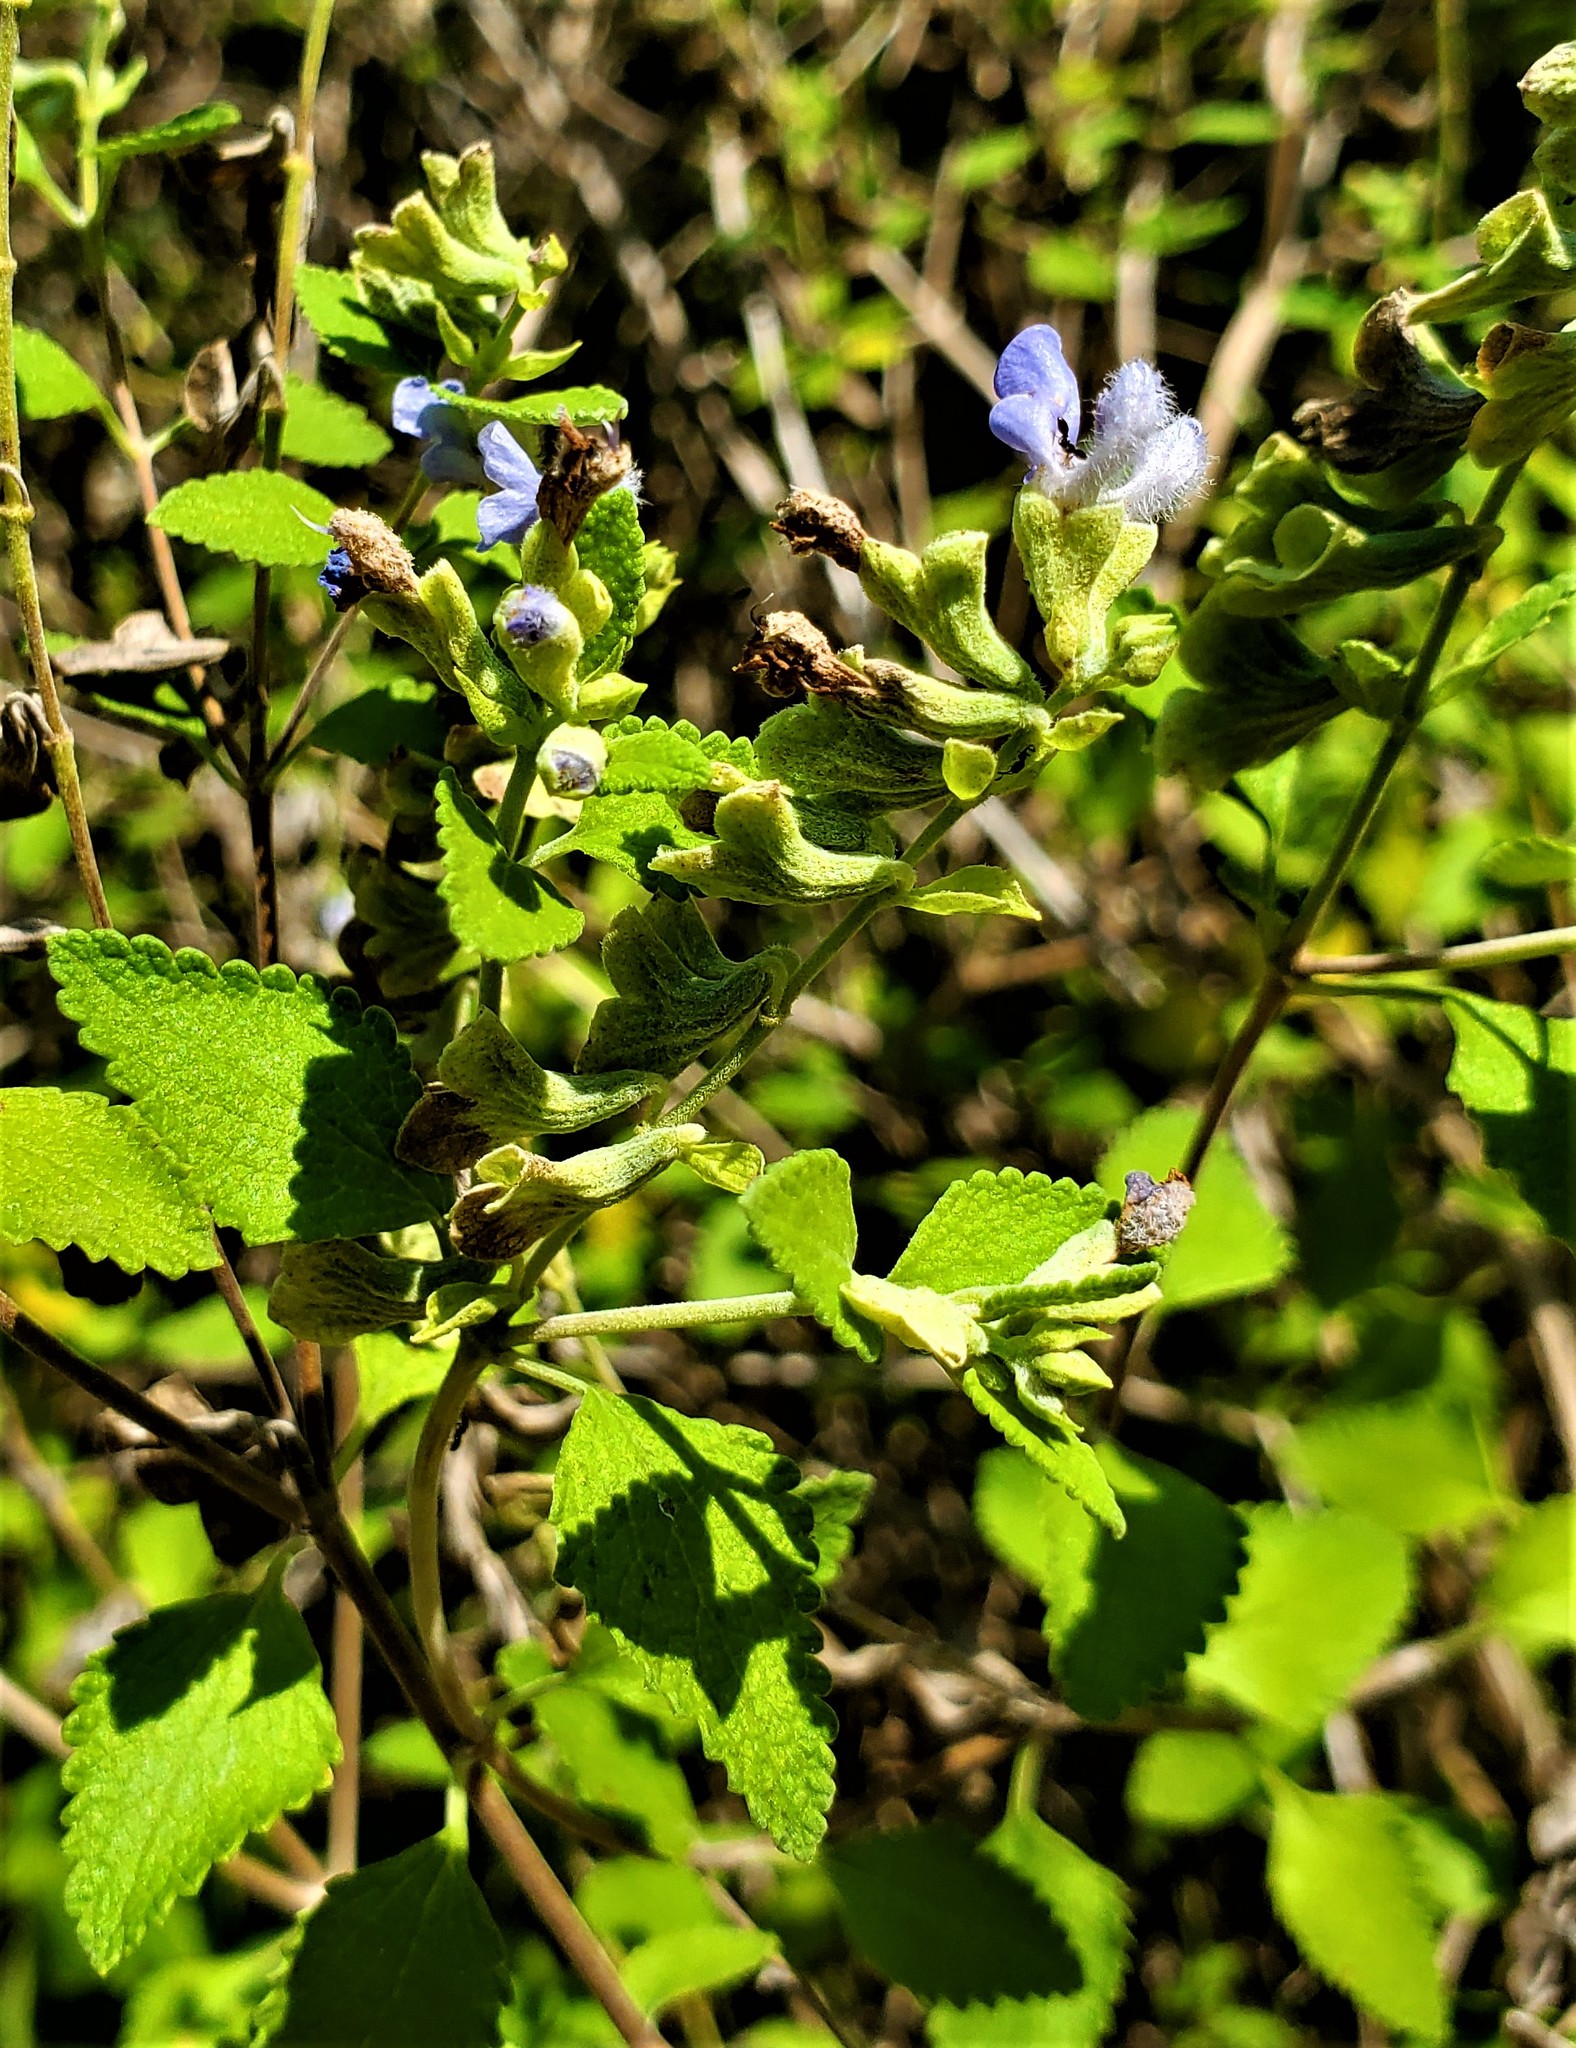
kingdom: Plantae
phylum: Tracheophyta
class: Magnoliopsida
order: Lamiales
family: Lamiaceae
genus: Salvia
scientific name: Salvia ballotiflora
